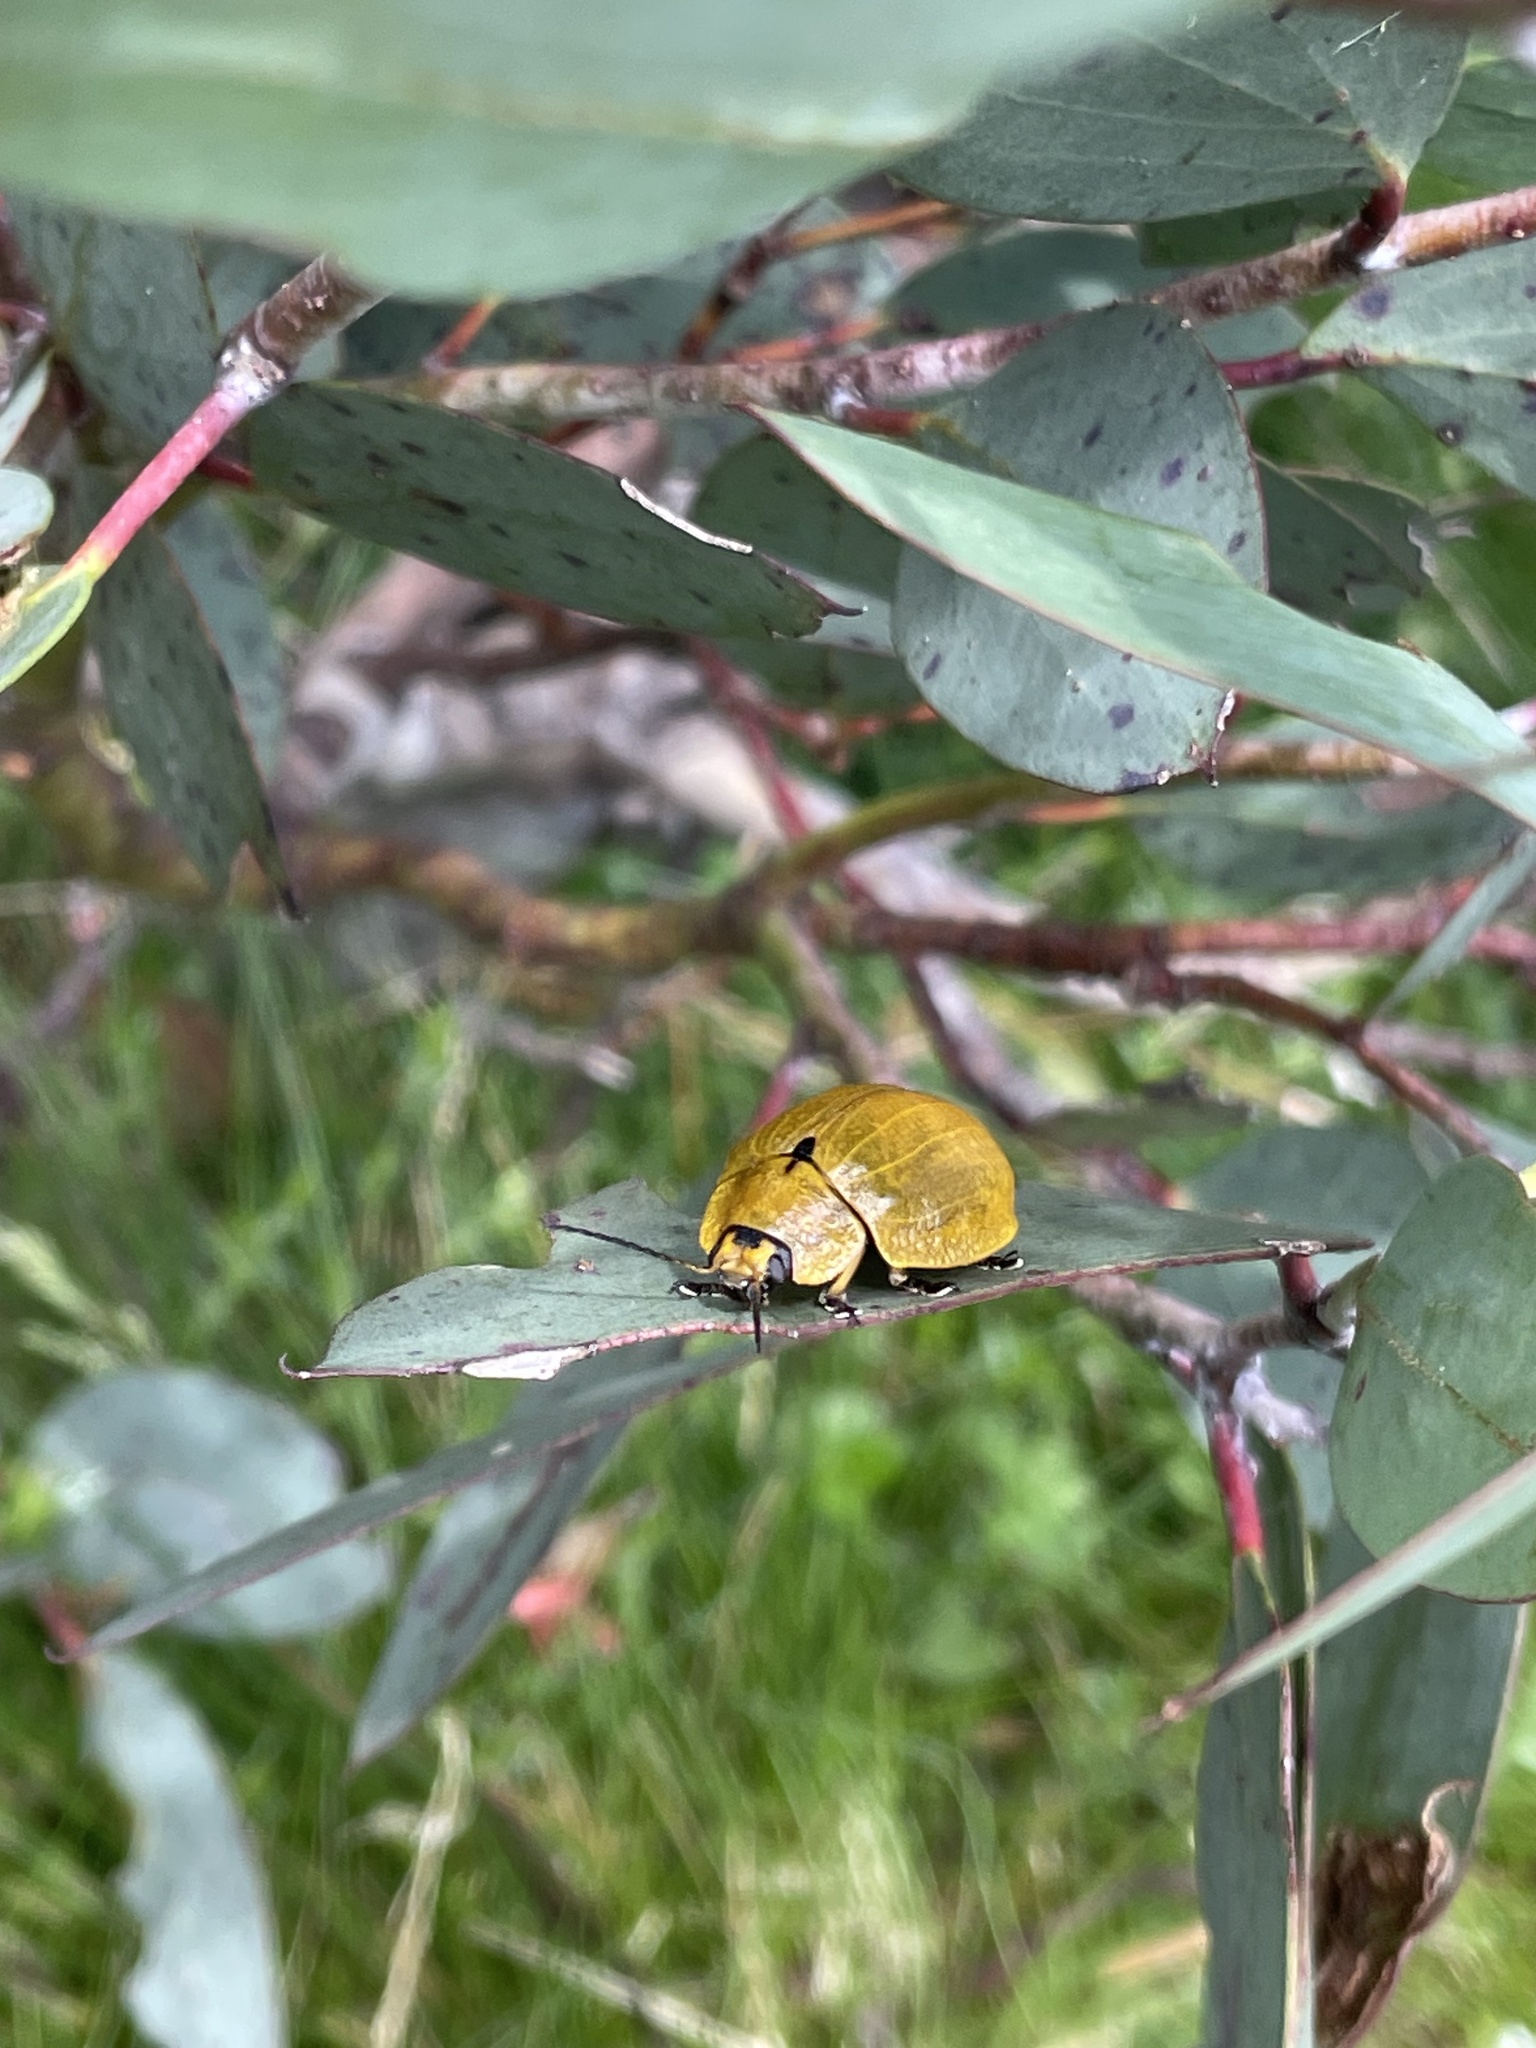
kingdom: Animalia
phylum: Arthropoda
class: Insecta
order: Coleoptera
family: Chrysomelidae
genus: Paropsis
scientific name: Paropsis
